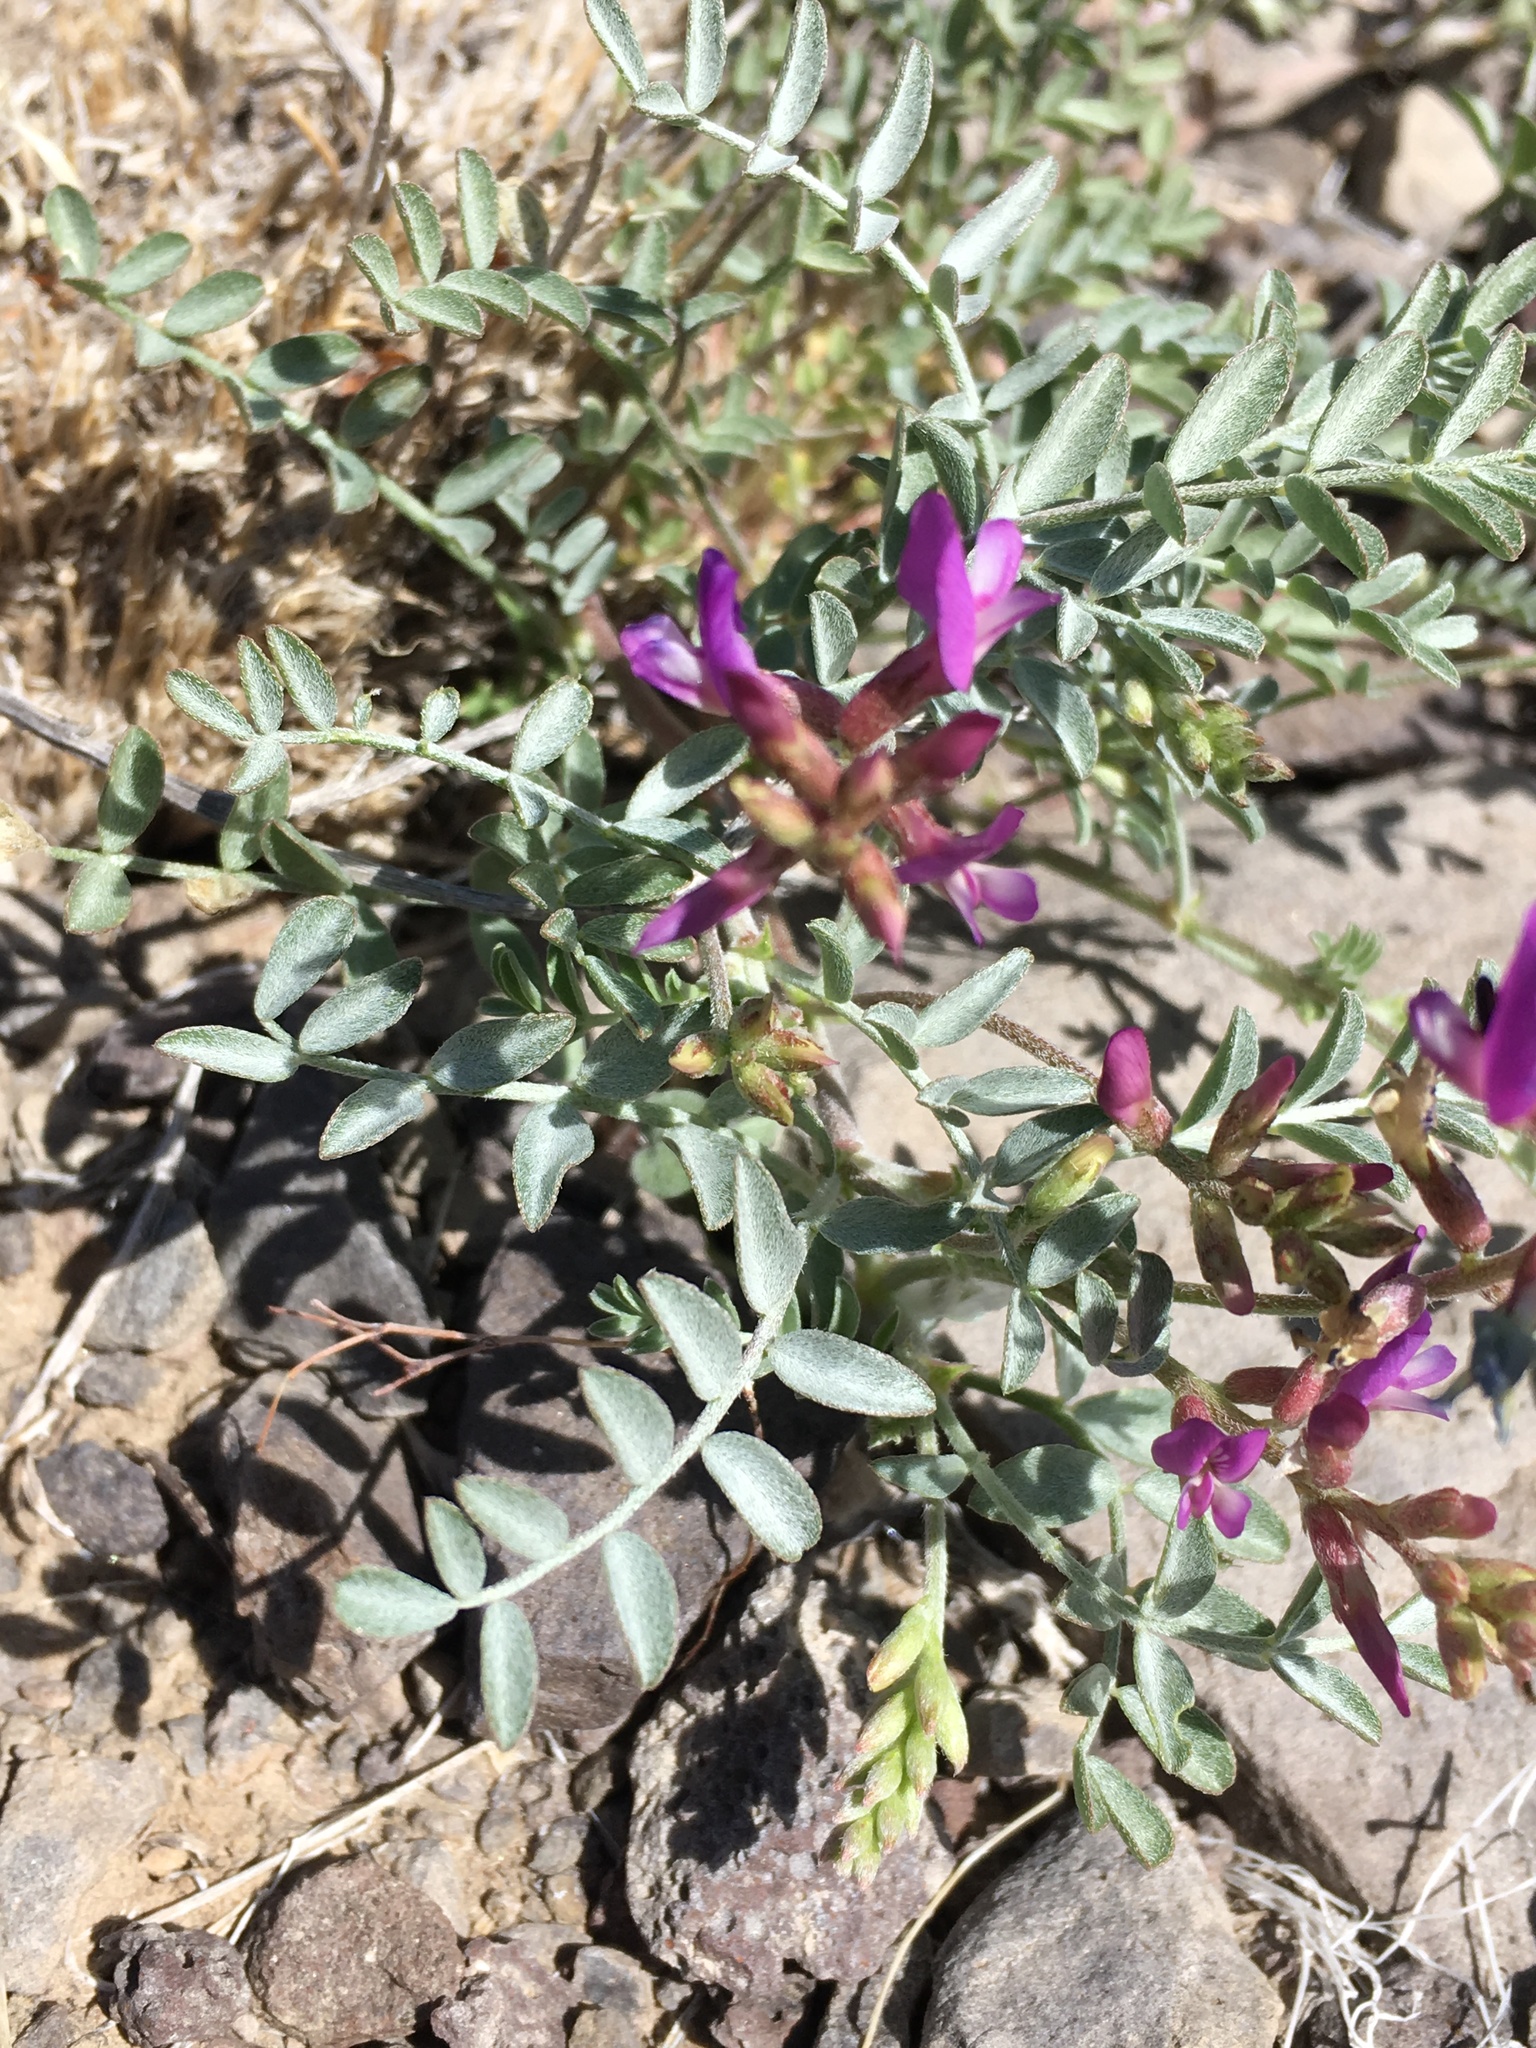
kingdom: Plantae
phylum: Tracheophyta
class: Magnoliopsida
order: Fabales
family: Fabaceae
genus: Astragalus
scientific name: Astragalus lentiginosus
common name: Freckled milkvetch
